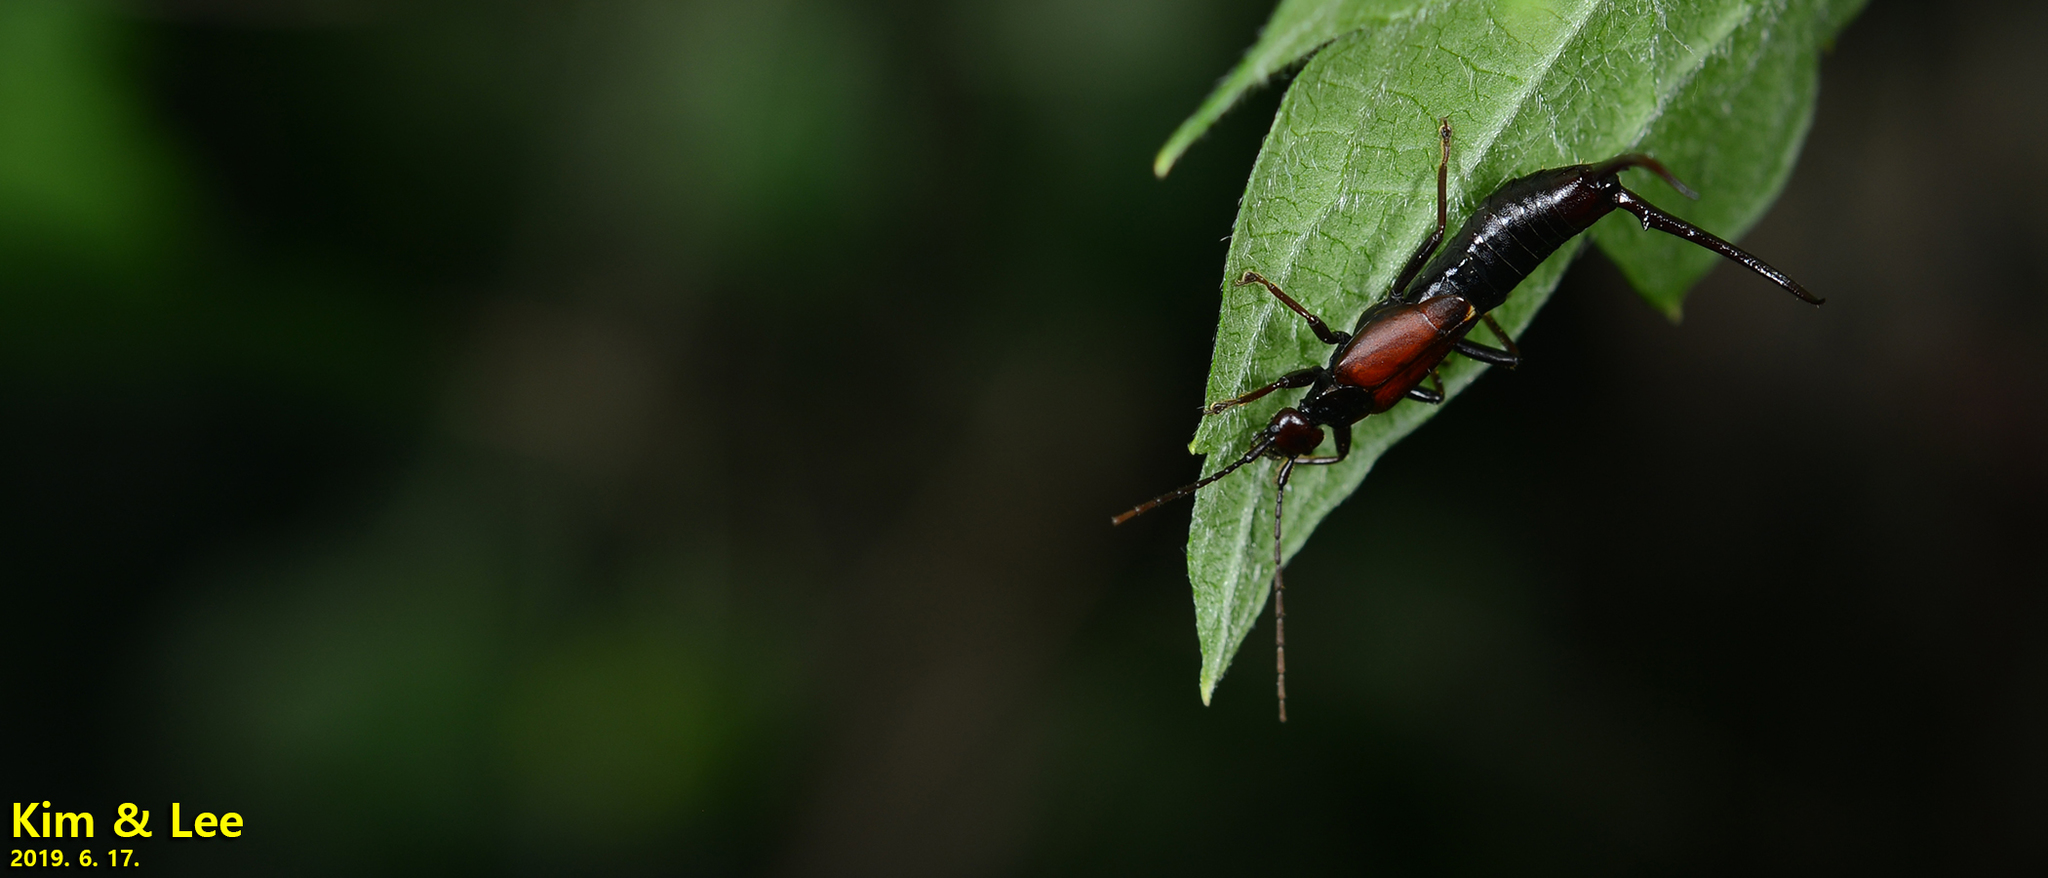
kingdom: Animalia
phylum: Arthropoda
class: Insecta
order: Dermaptera
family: Forficulidae
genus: Timomenus
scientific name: Timomenus komarovi
